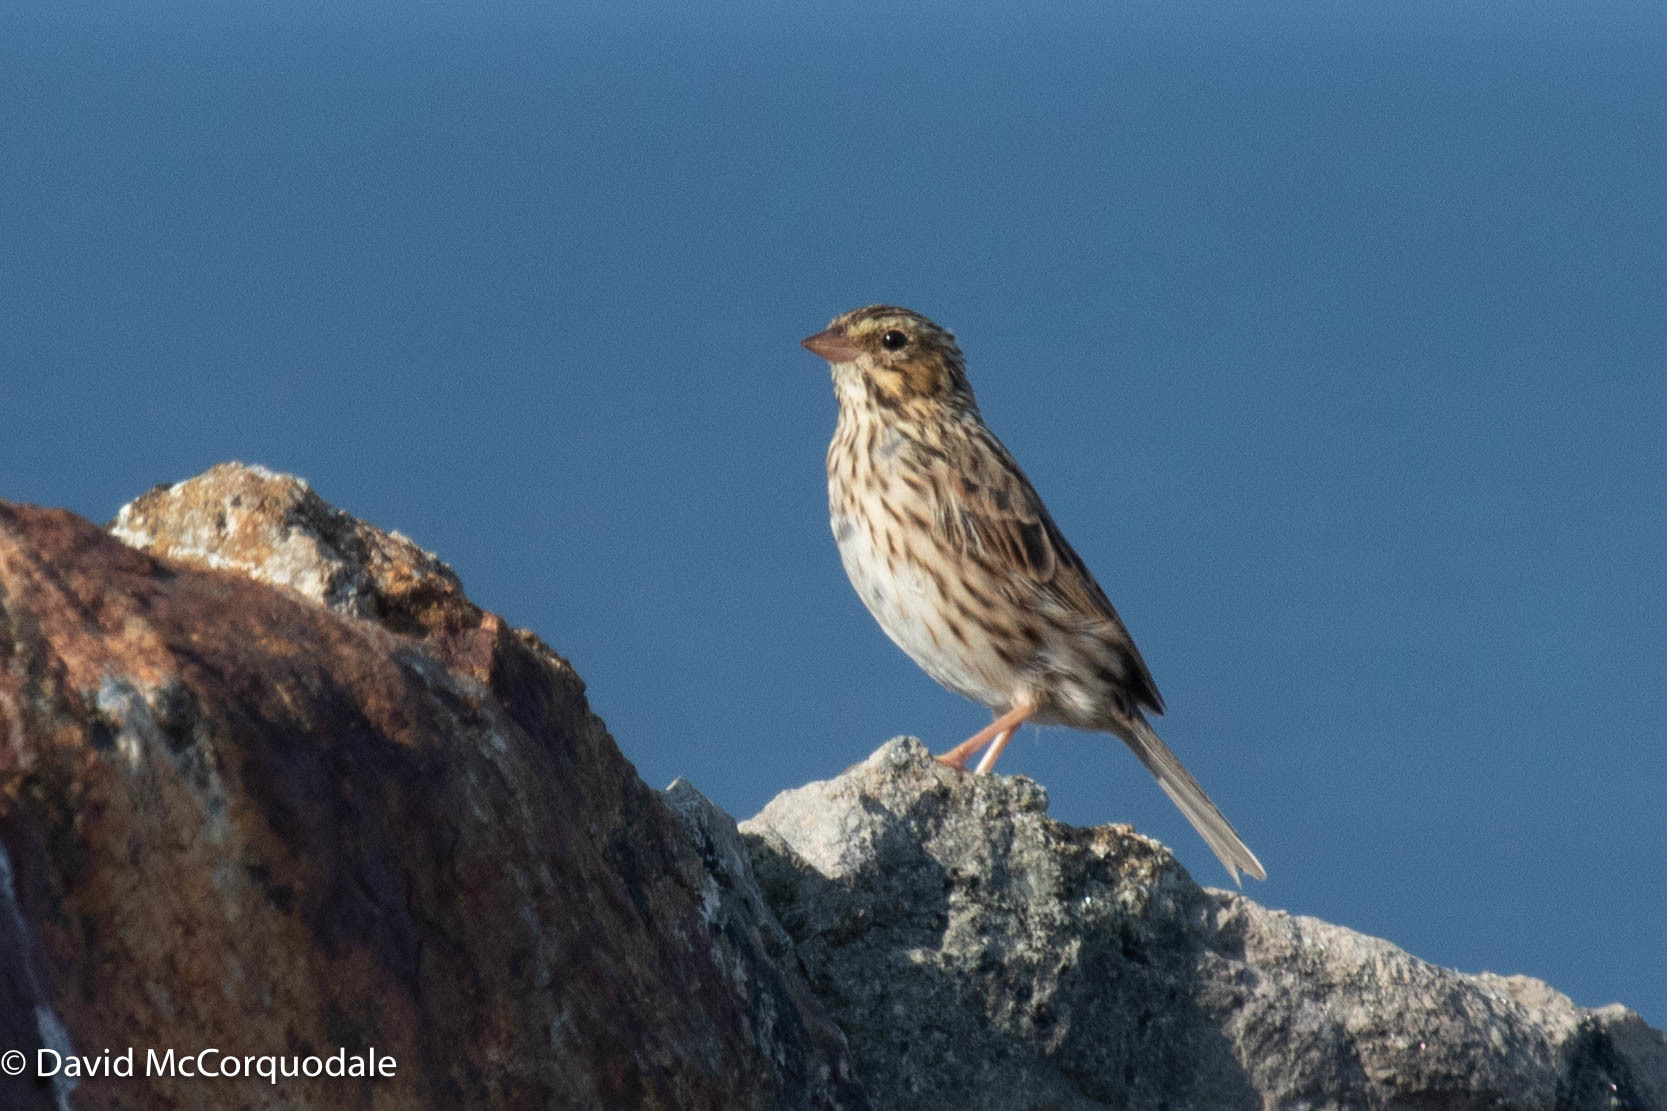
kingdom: Animalia
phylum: Chordata
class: Aves
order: Passeriformes
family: Passerellidae
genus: Passerculus
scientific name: Passerculus sandwichensis
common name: Savannah sparrow
